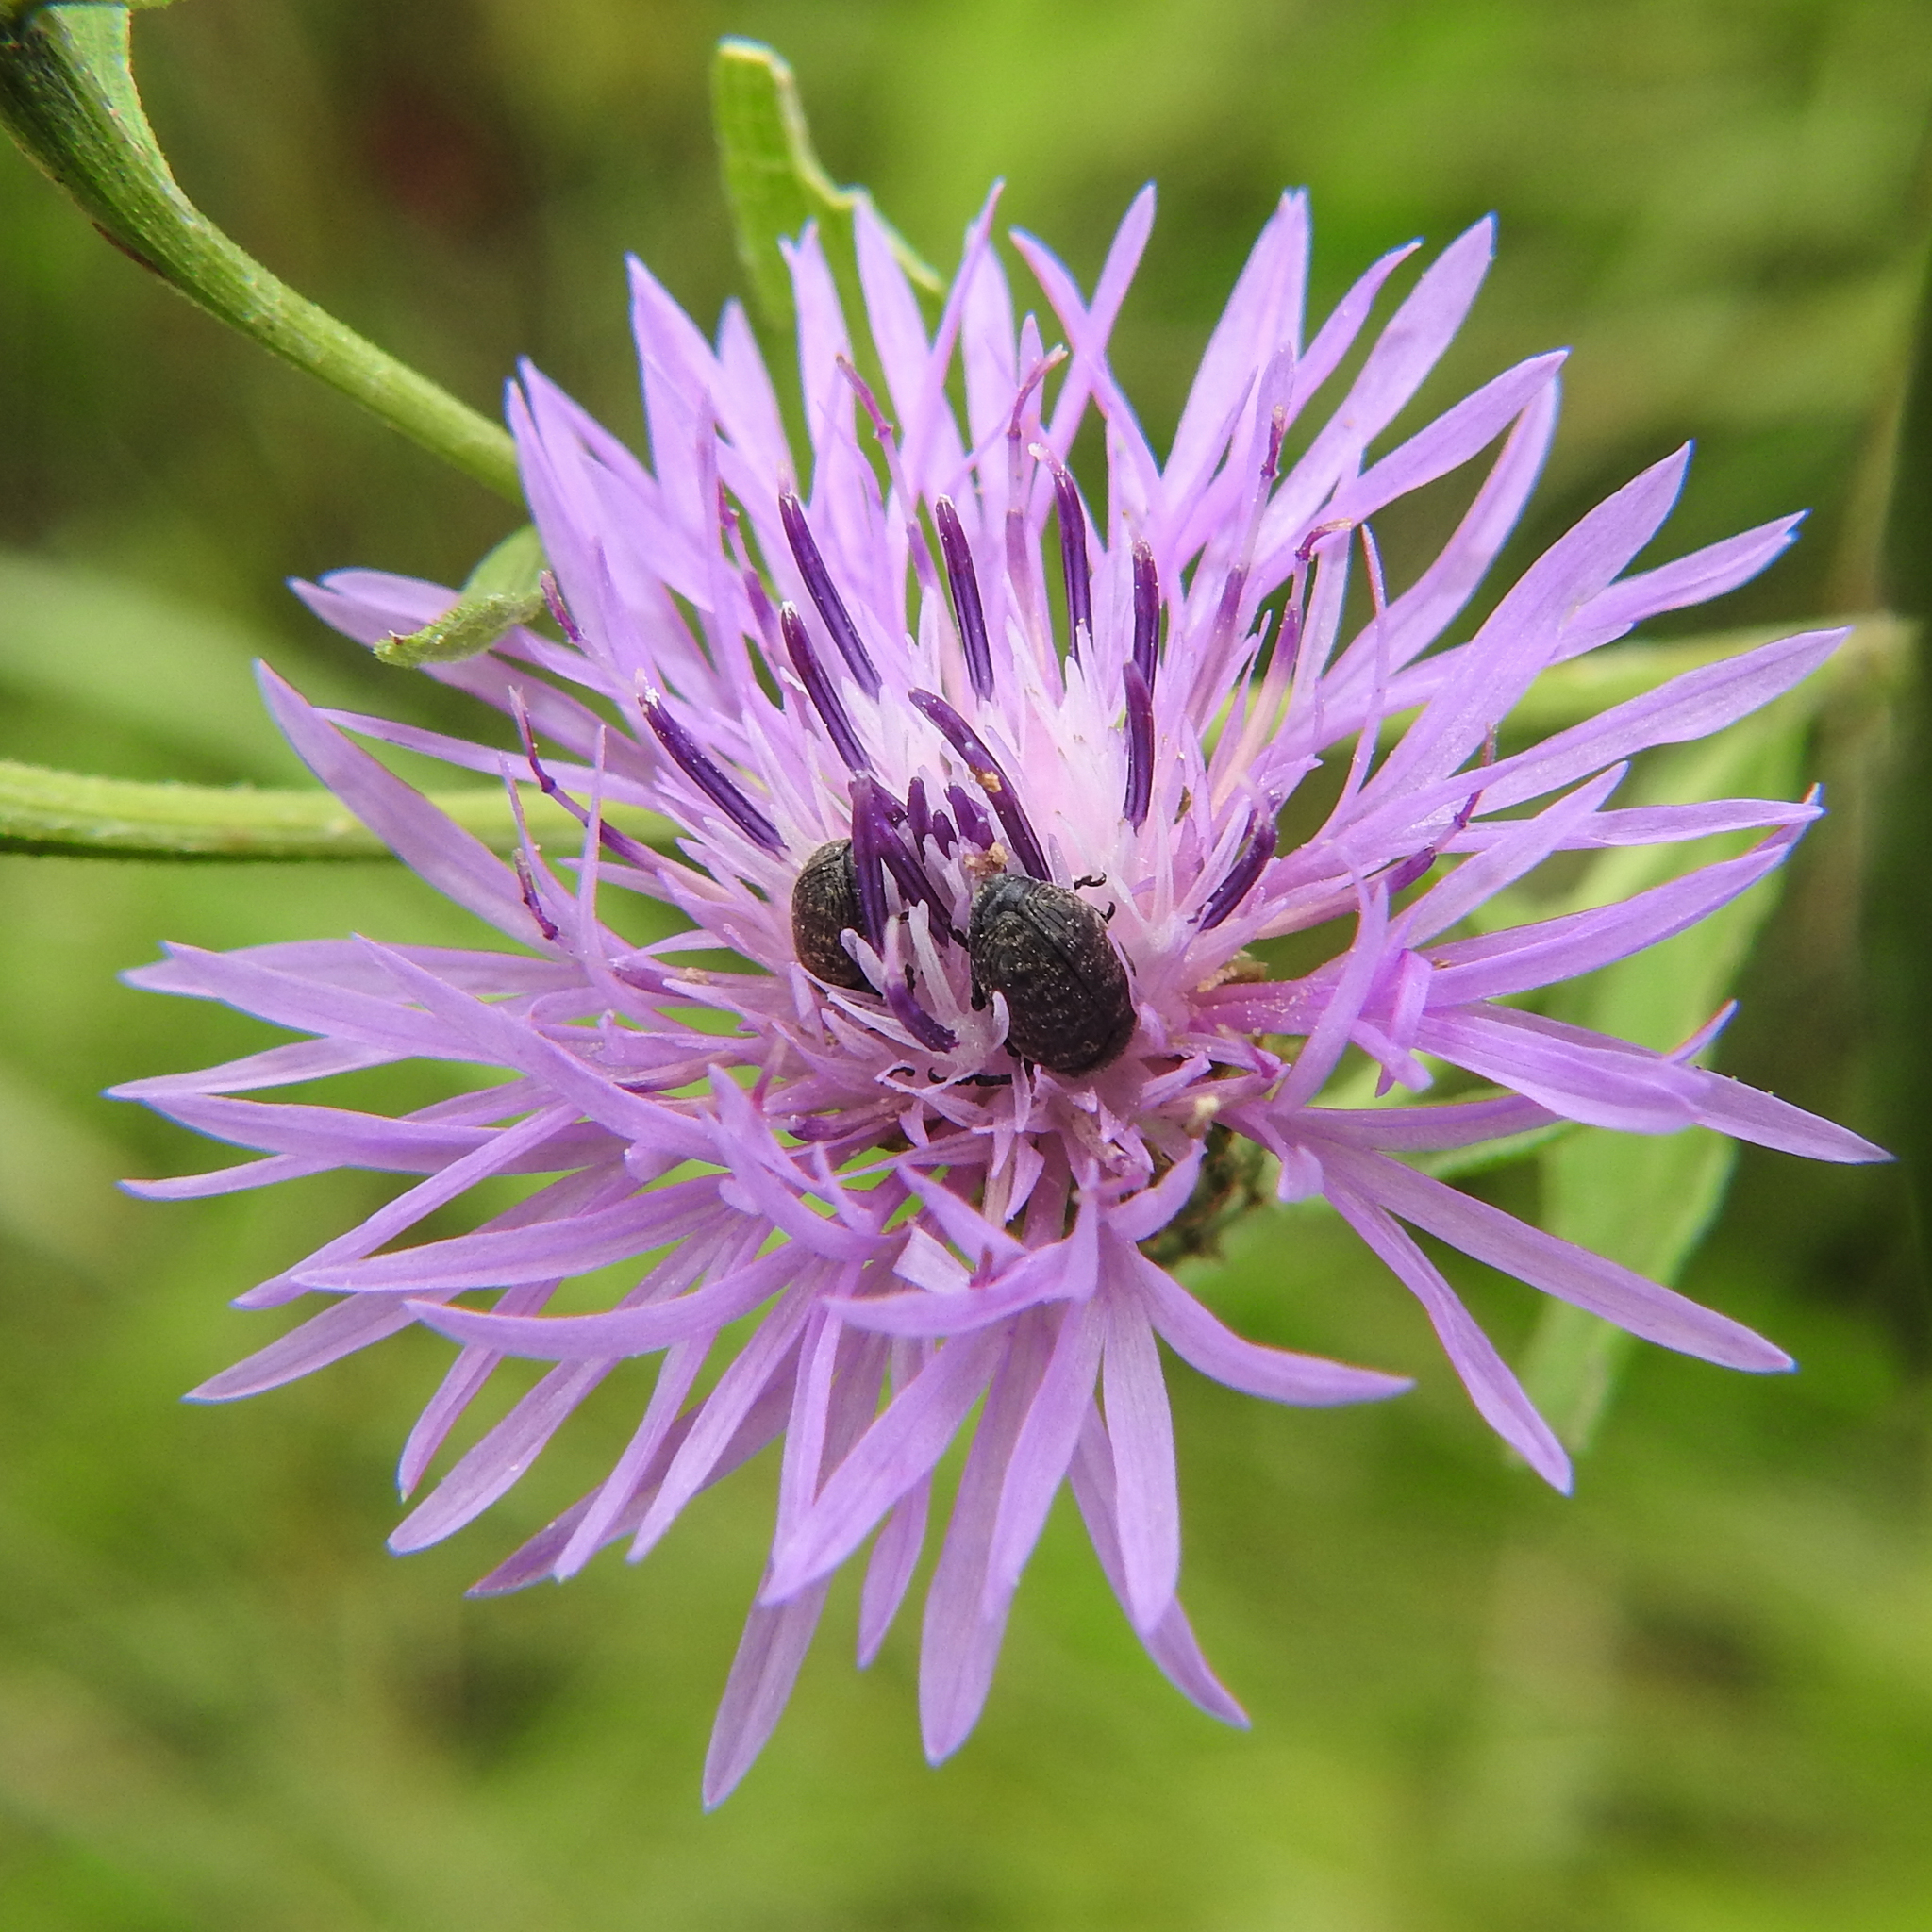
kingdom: Animalia
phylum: Arthropoda
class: Insecta
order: Coleoptera
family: Curculionidae
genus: Larinus
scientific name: Larinus obtusus
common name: Weevil
